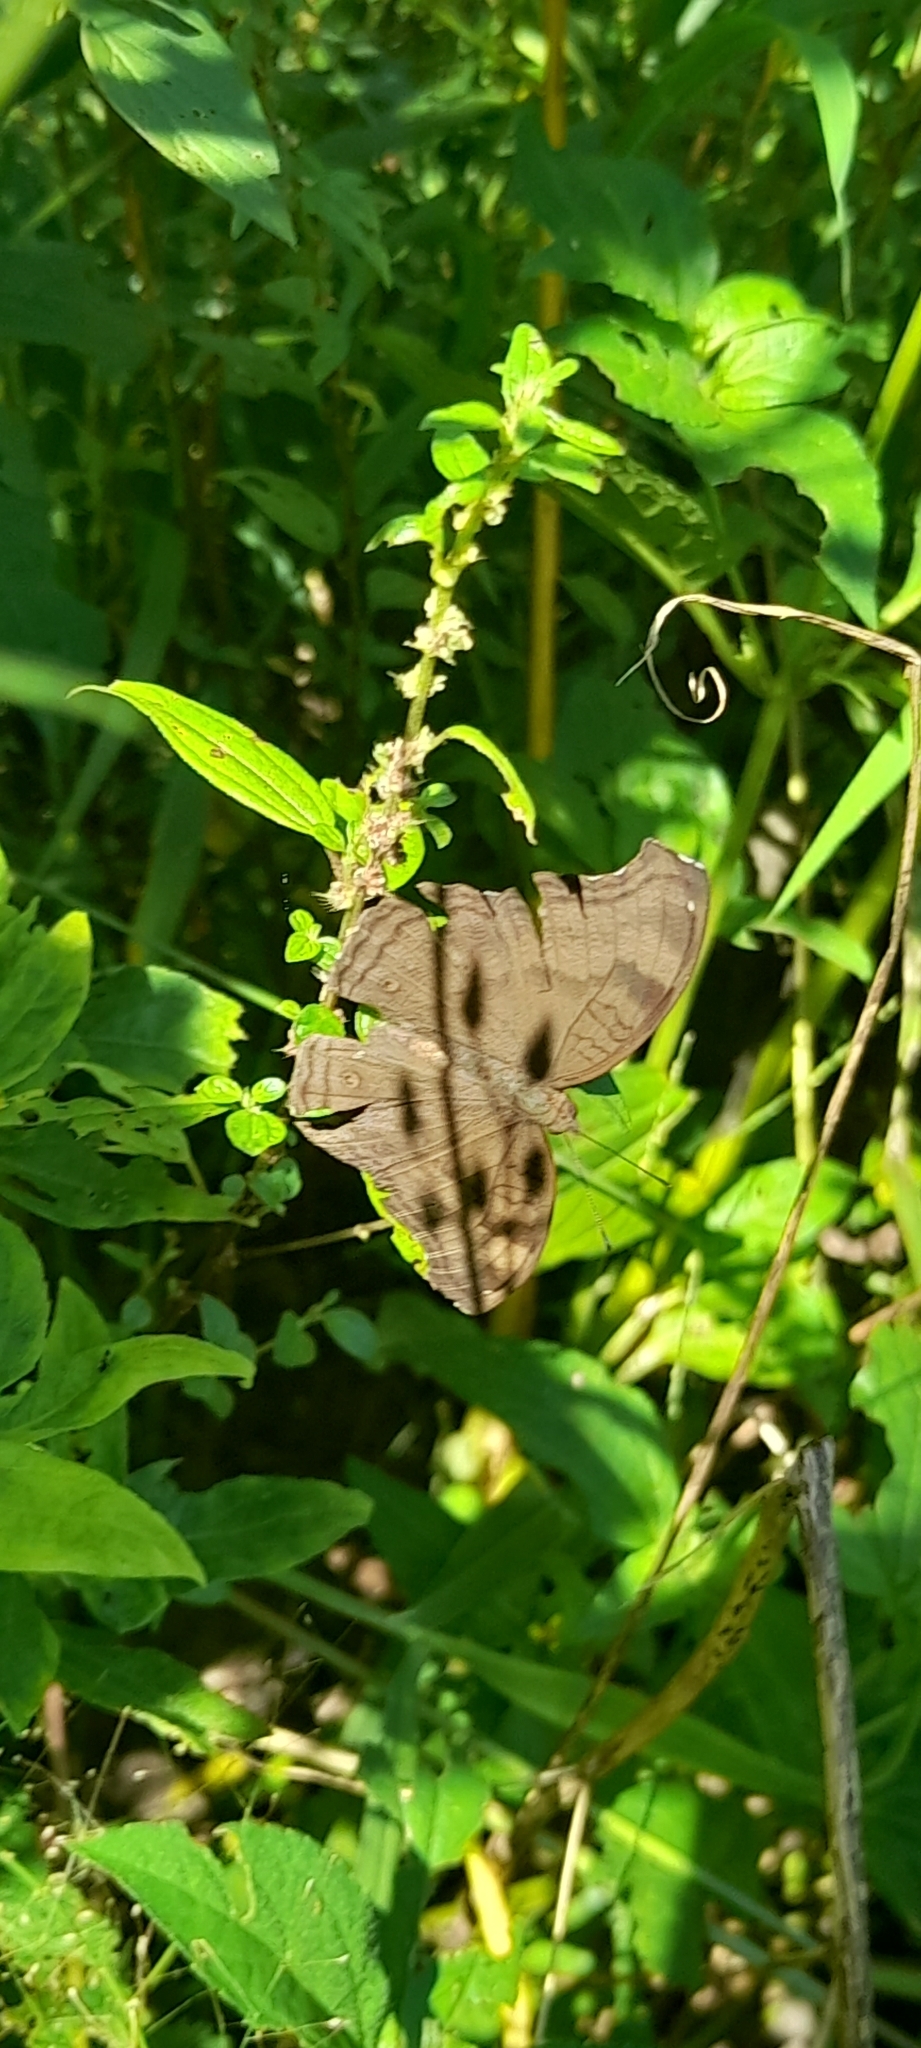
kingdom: Animalia
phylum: Arthropoda
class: Insecta
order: Lepidoptera
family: Nymphalidae
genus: Junonia
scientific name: Junonia iphita
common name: Chocolate pansy
